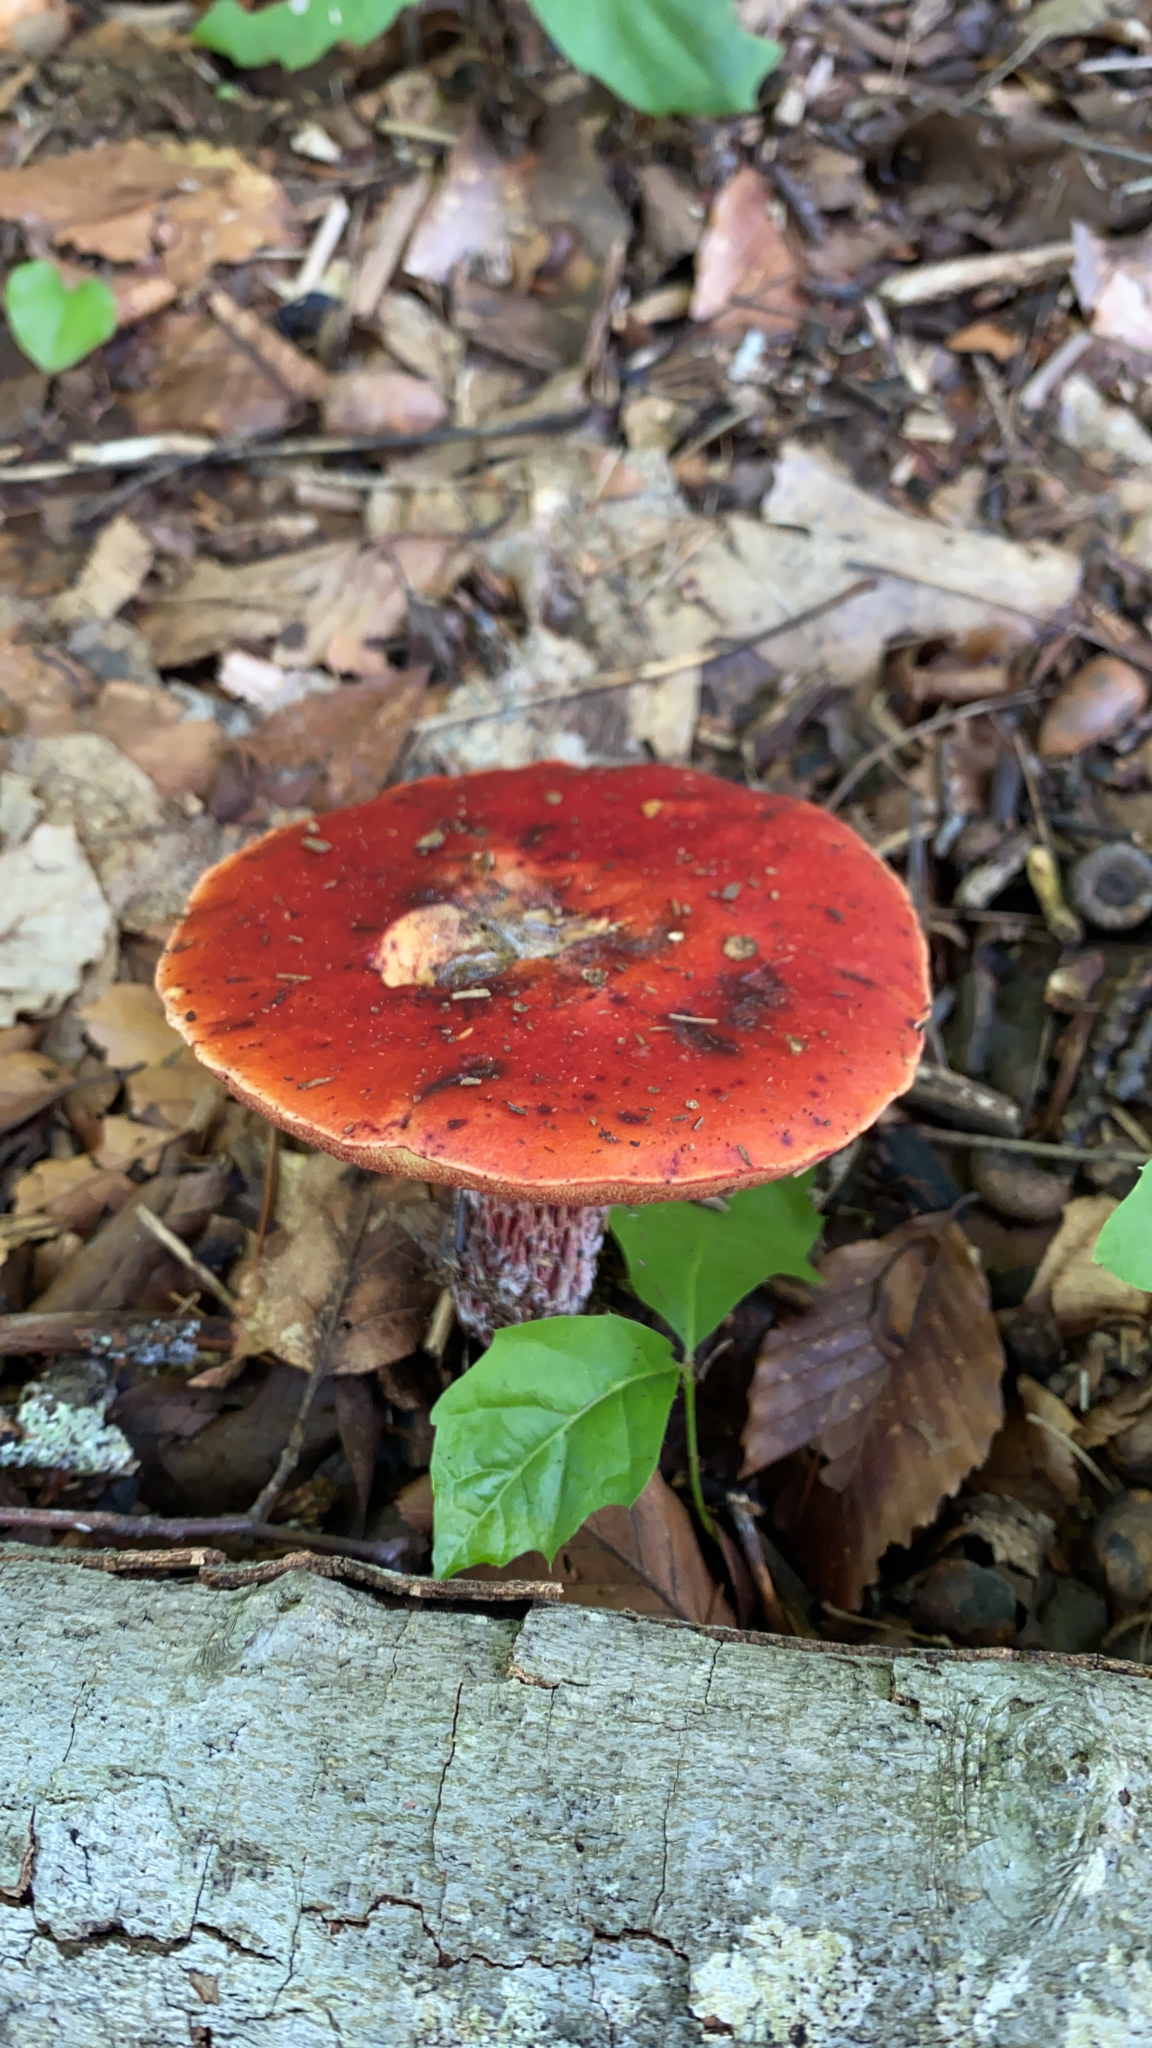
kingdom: Fungi
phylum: Basidiomycota
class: Agaricomycetes
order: Boletales
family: Boletaceae
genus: Butyriboletus
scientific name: Butyriboletus frostii
